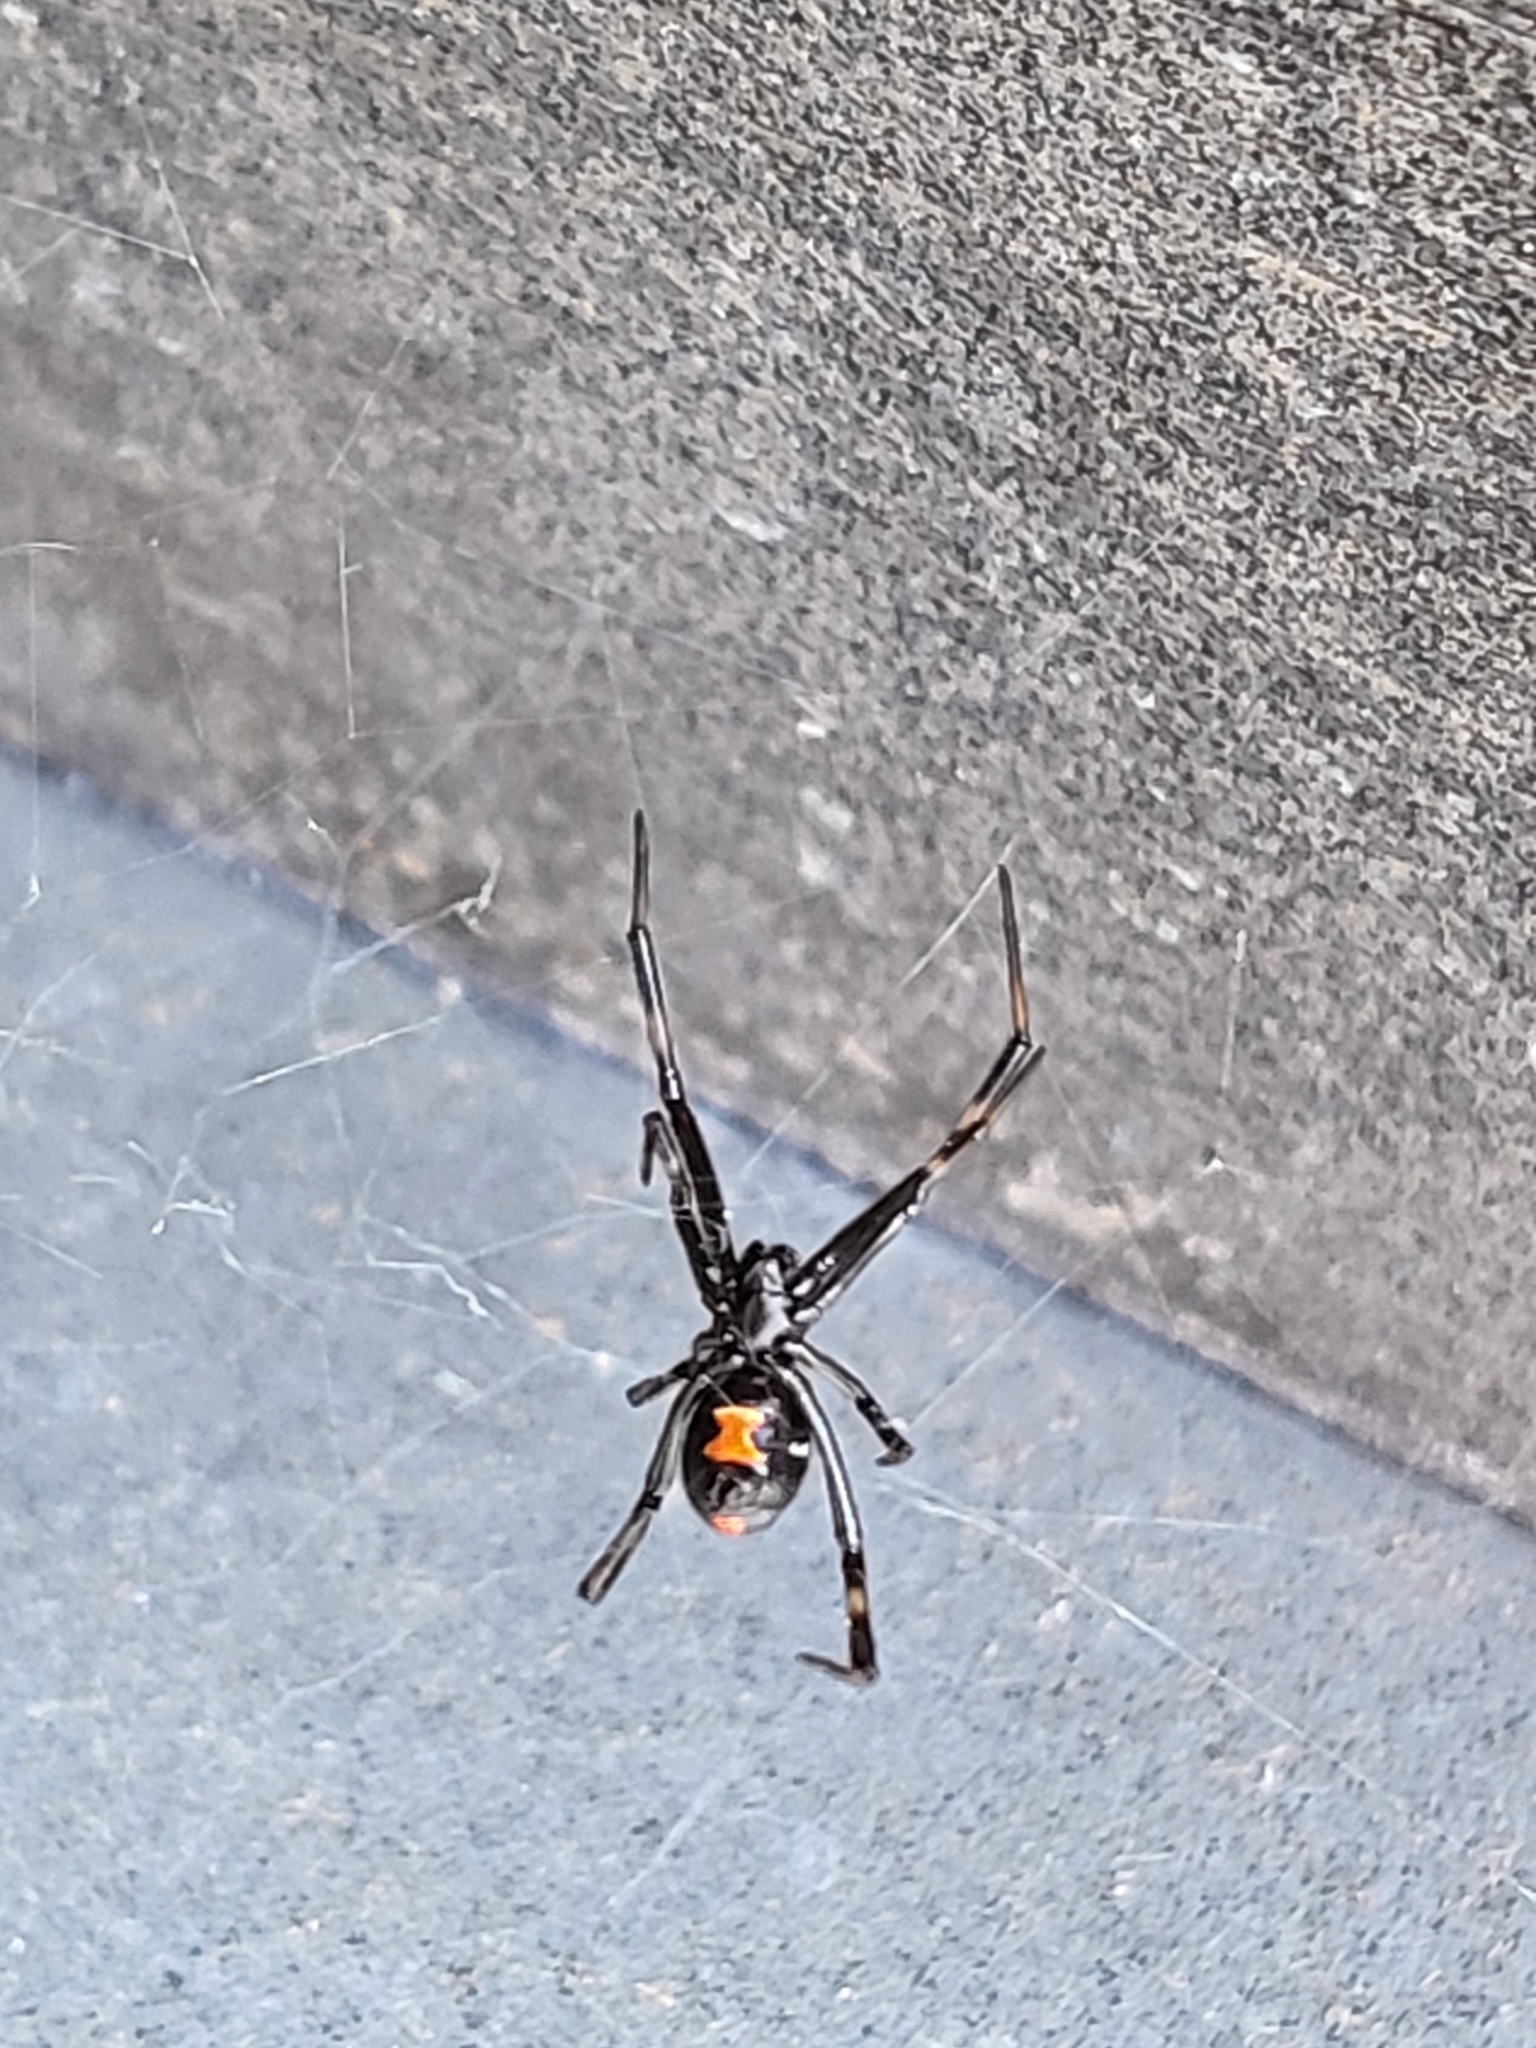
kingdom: Animalia
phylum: Arthropoda
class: Arachnida
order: Araneae
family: Theridiidae
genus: Latrodectus
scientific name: Latrodectus mactans
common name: Cobweb spiders
